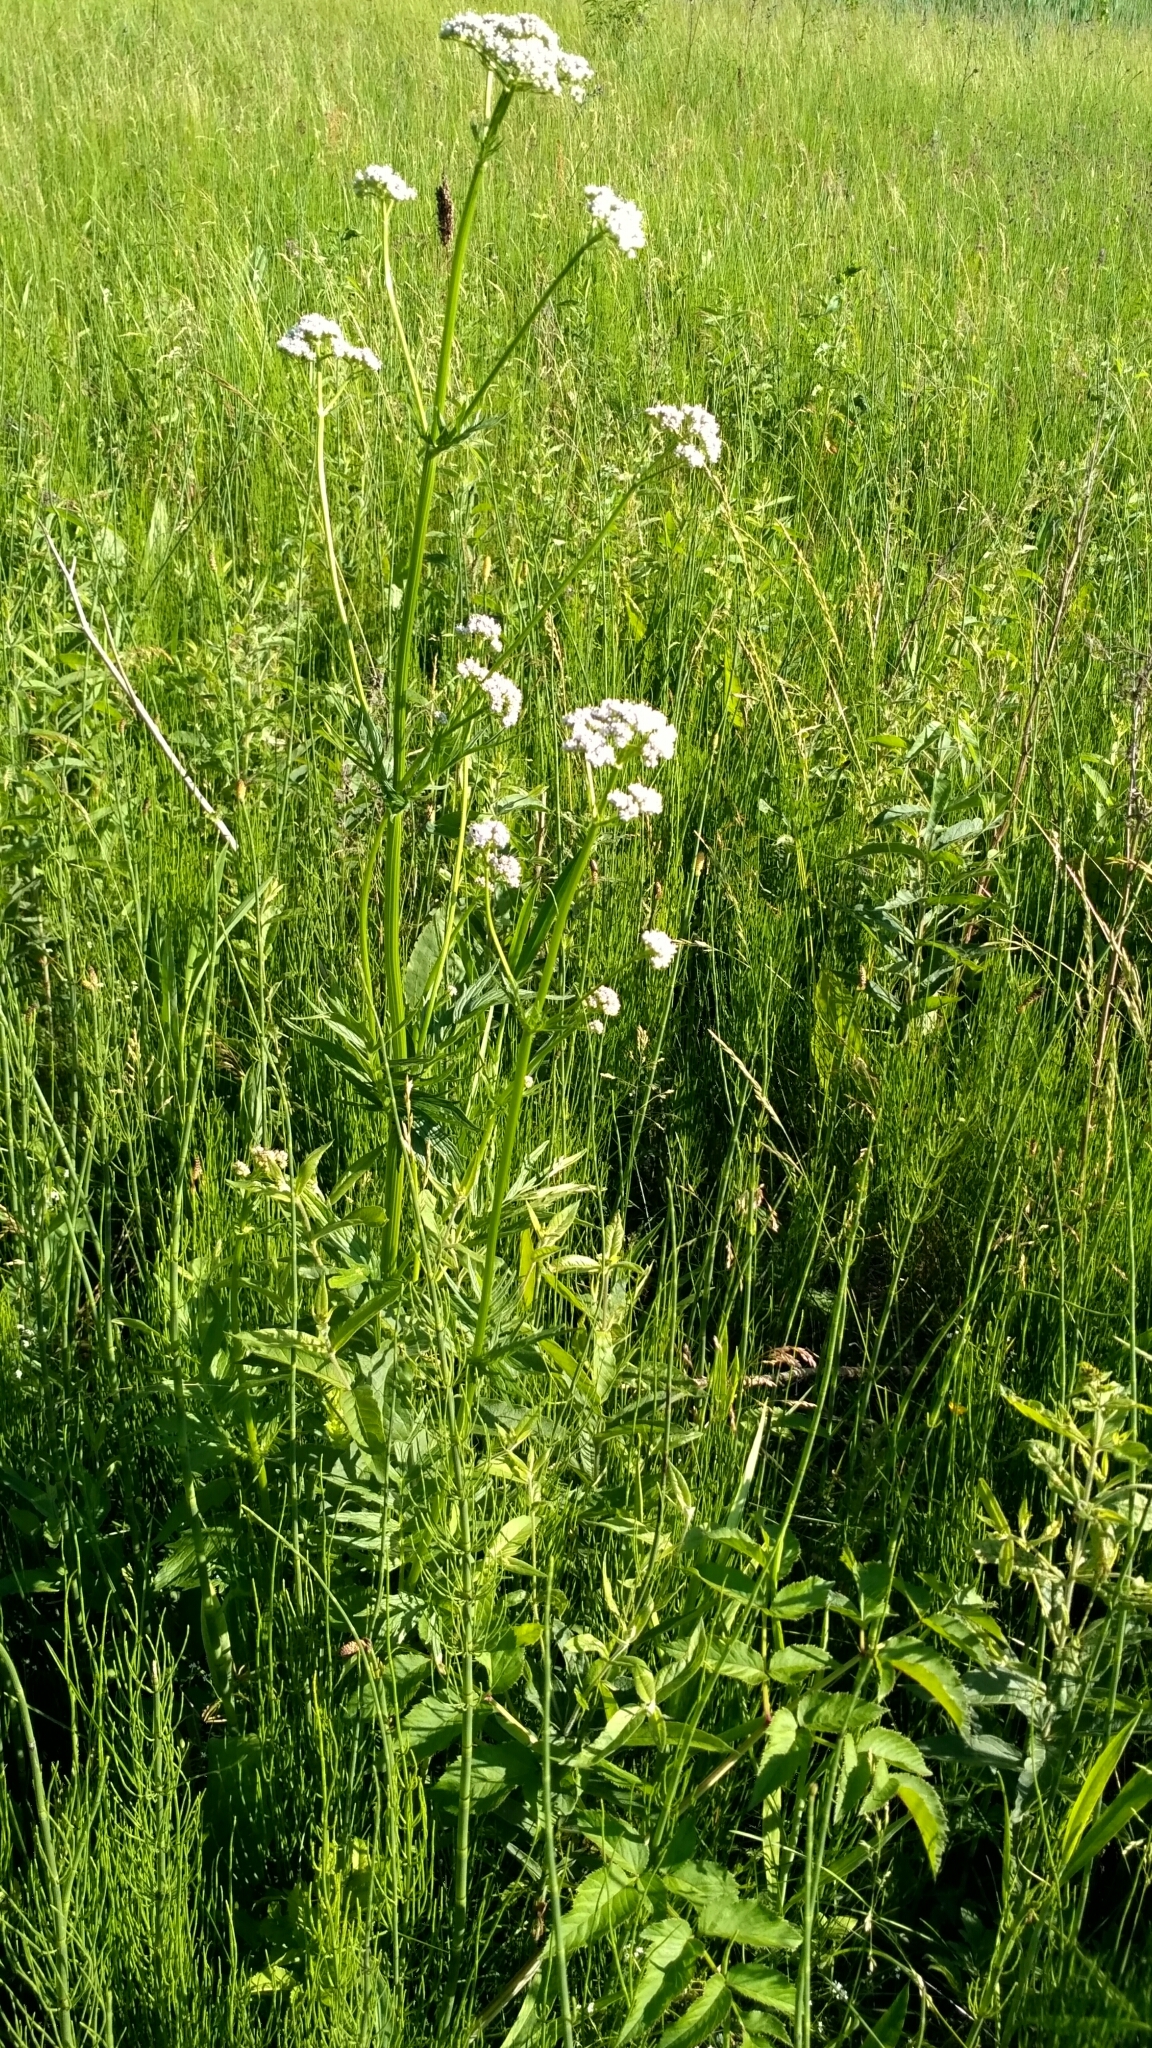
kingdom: Plantae
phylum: Tracheophyta
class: Magnoliopsida
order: Dipsacales
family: Caprifoliaceae
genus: Valeriana
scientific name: Valeriana officinalis
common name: Common valerian
